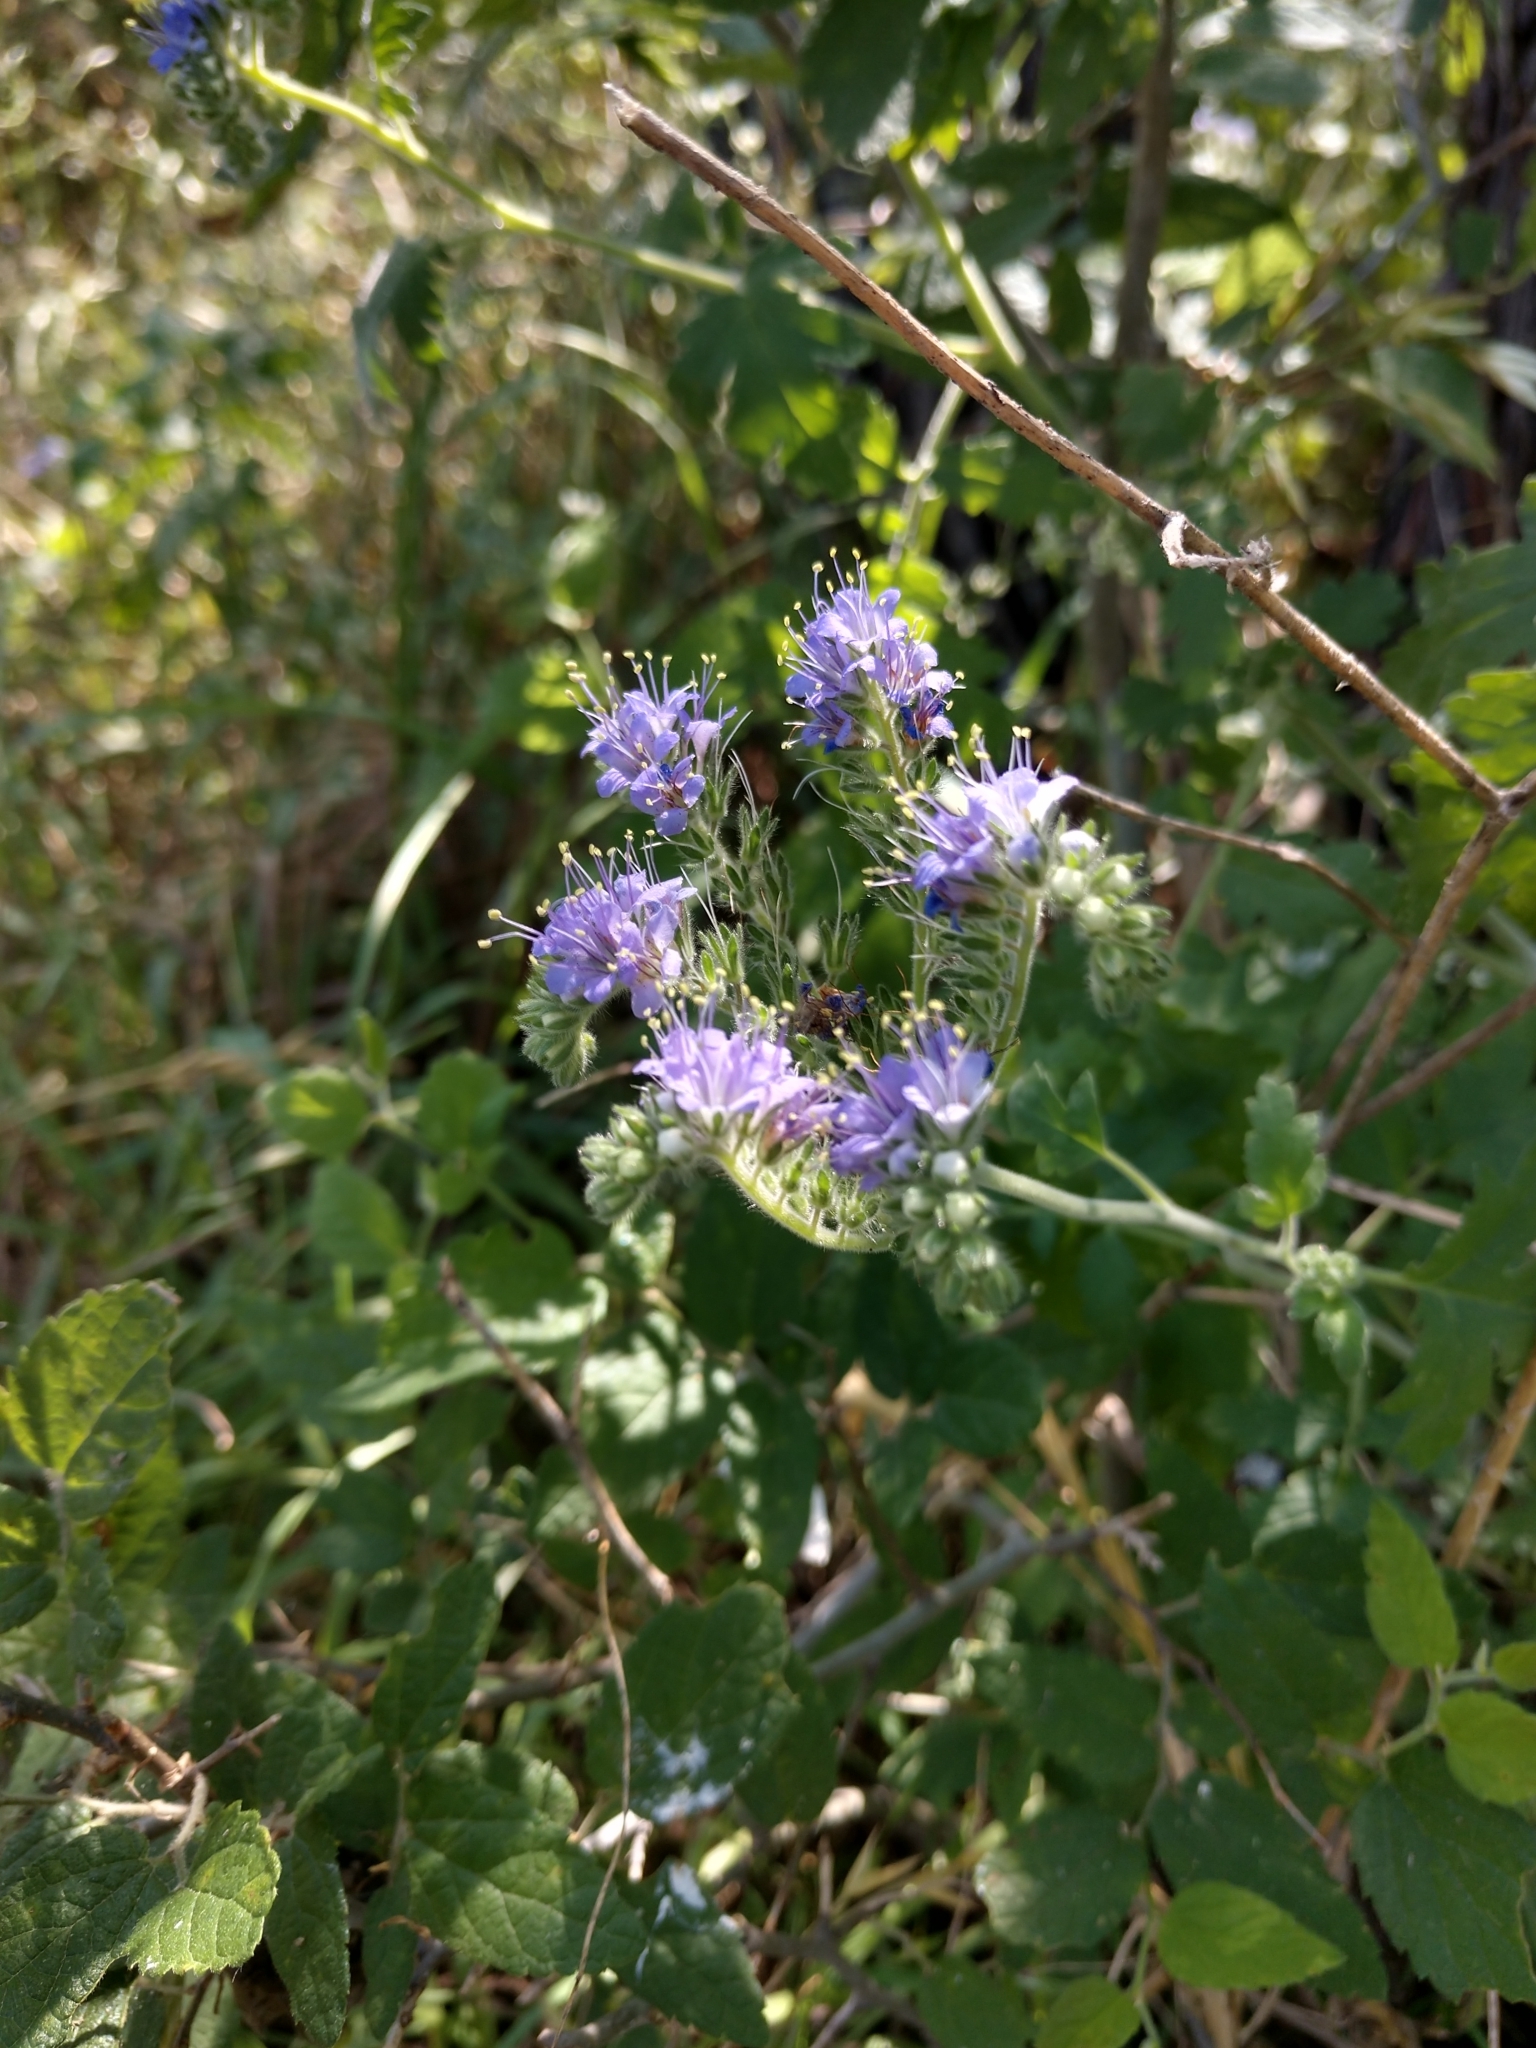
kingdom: Plantae
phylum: Tracheophyta
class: Magnoliopsida
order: Boraginales
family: Hydrophyllaceae
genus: Phacelia
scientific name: Phacelia congesta
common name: Blue curls
